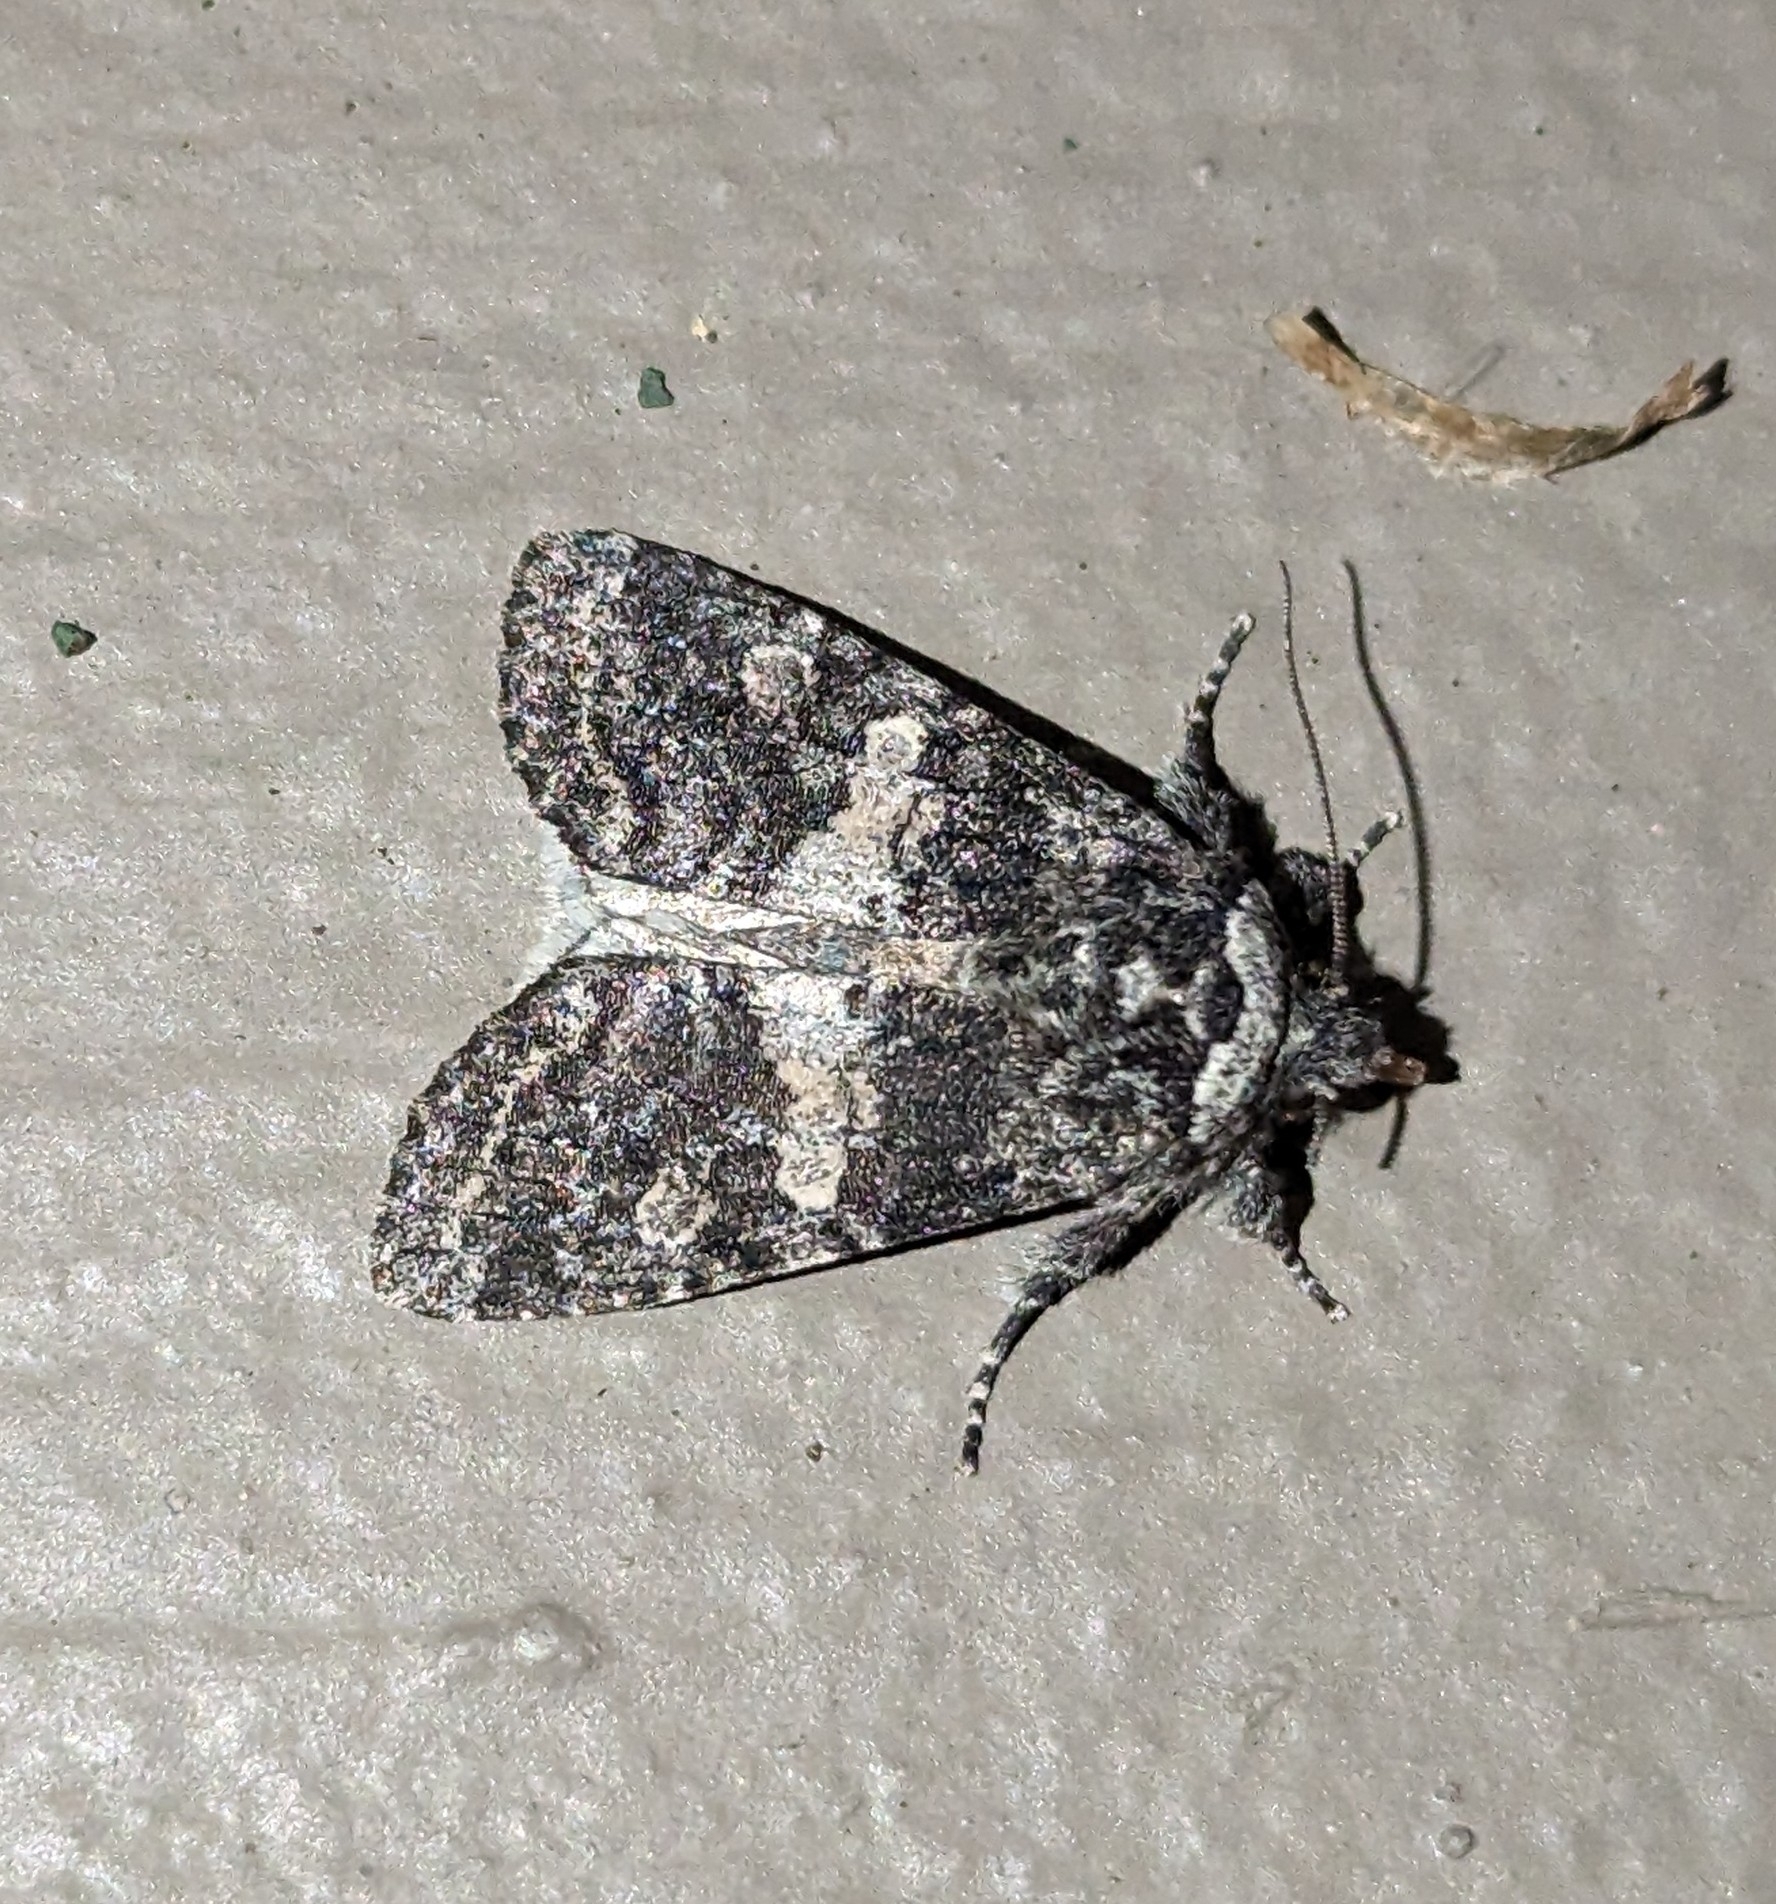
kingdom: Animalia
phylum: Arthropoda
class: Insecta
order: Lepidoptera
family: Noctuidae
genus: Egira
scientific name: Egira dolosa
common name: Lined black aspen cat.
